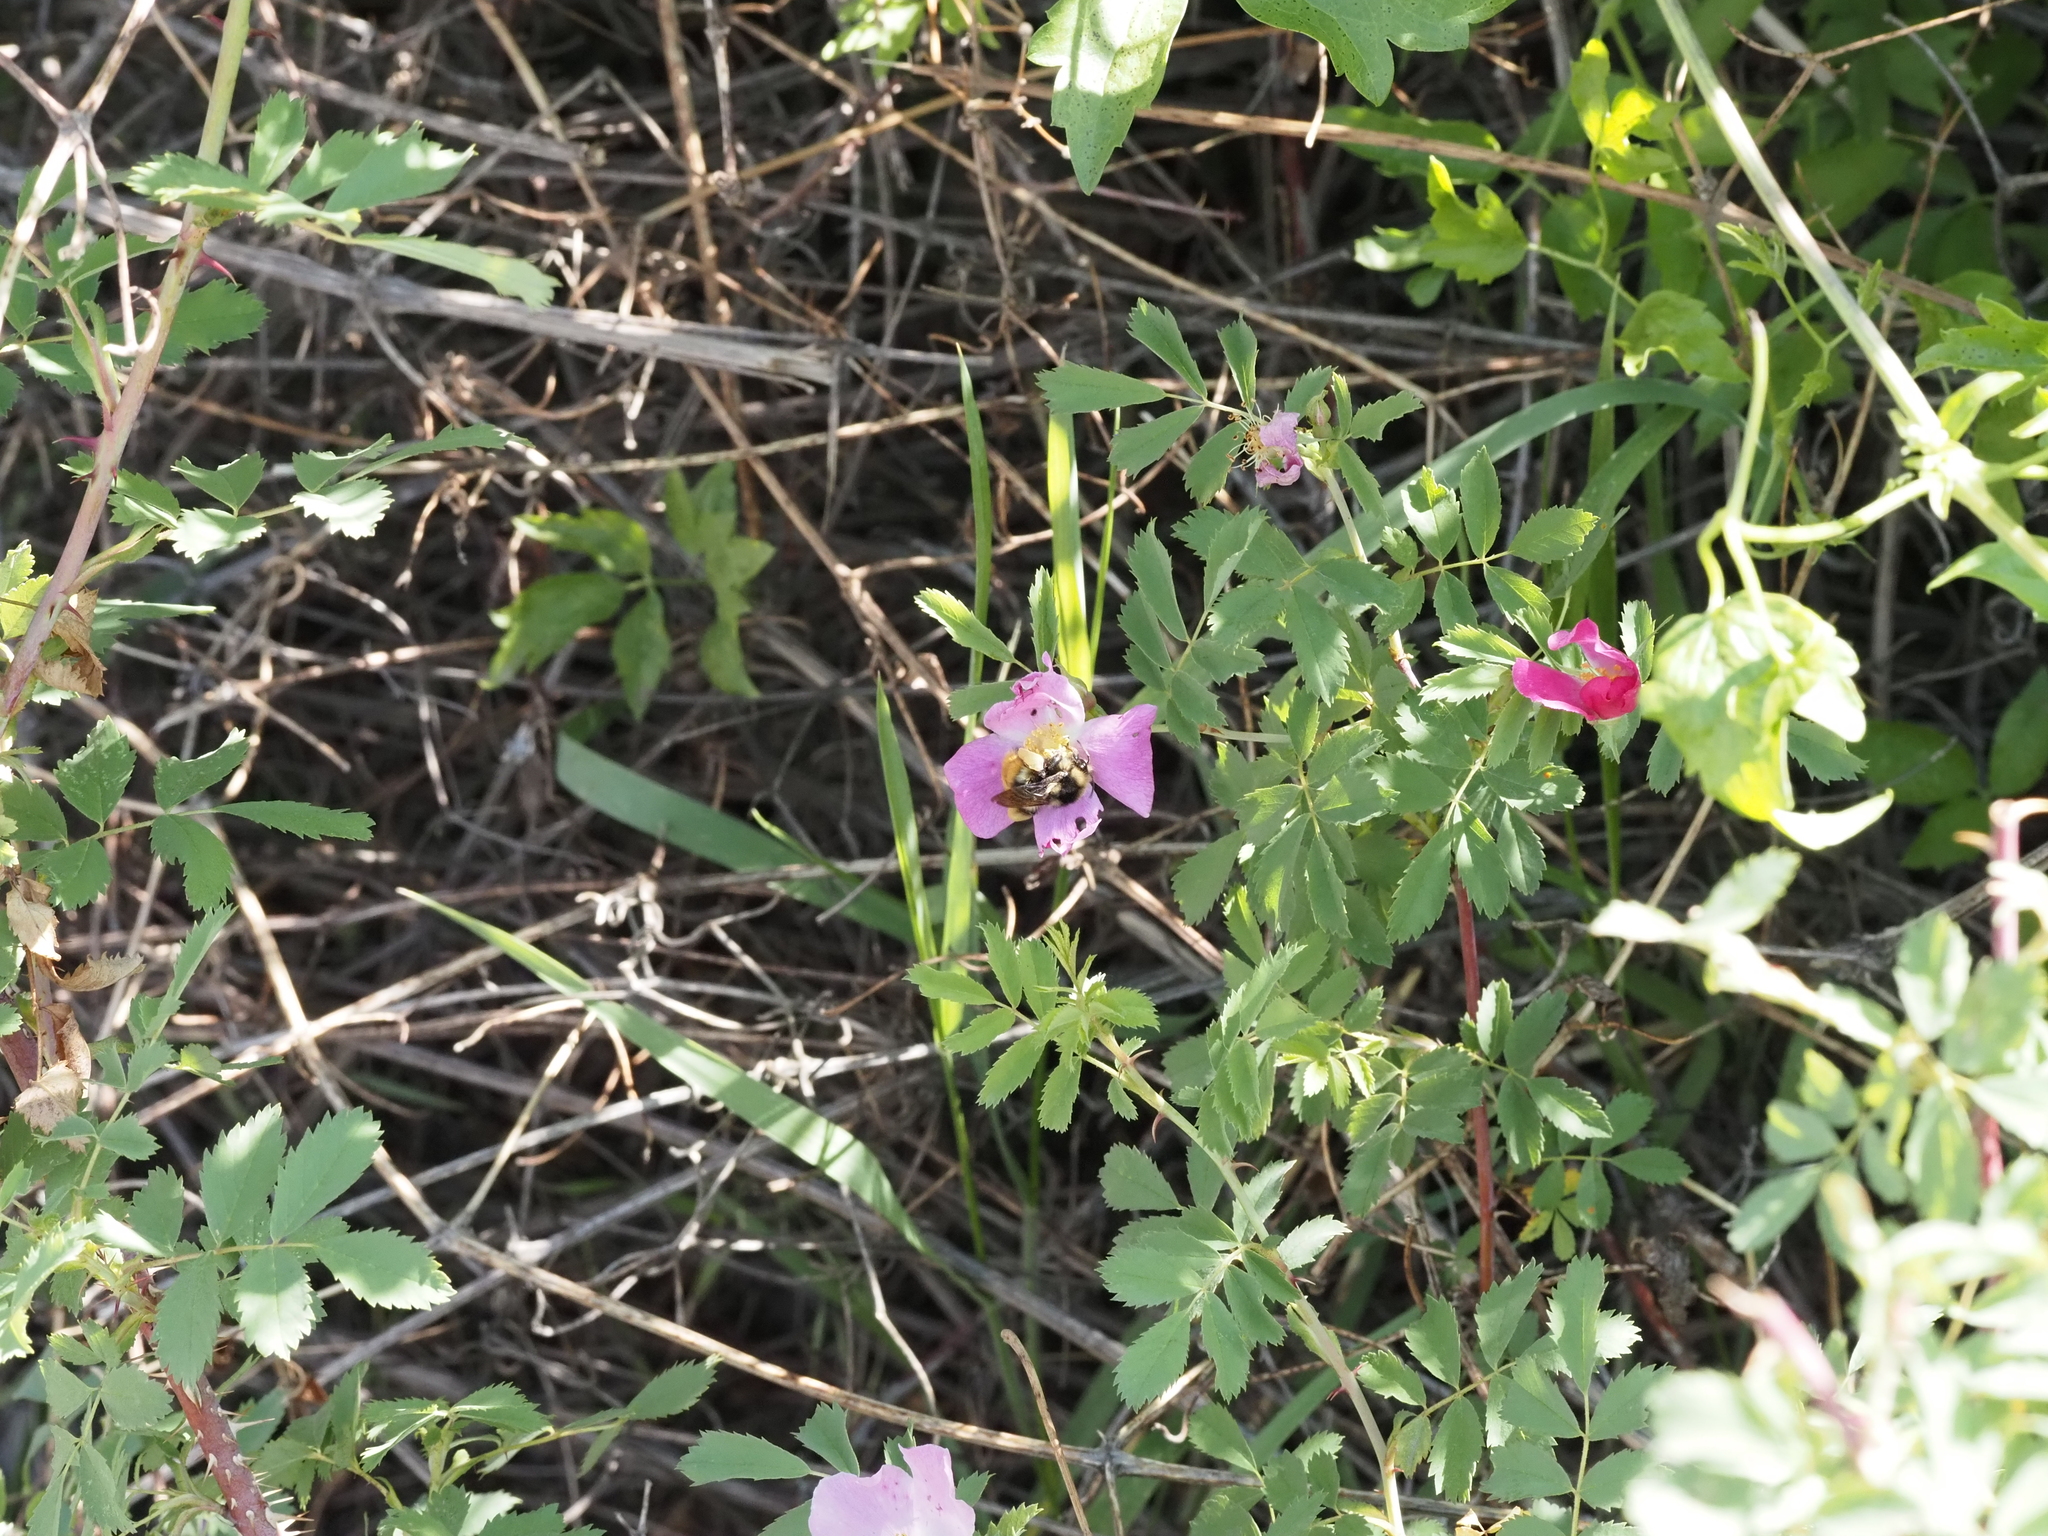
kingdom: Animalia
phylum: Arthropoda
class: Insecta
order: Hymenoptera
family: Apidae
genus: Bombus
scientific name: Bombus vancouverensis
